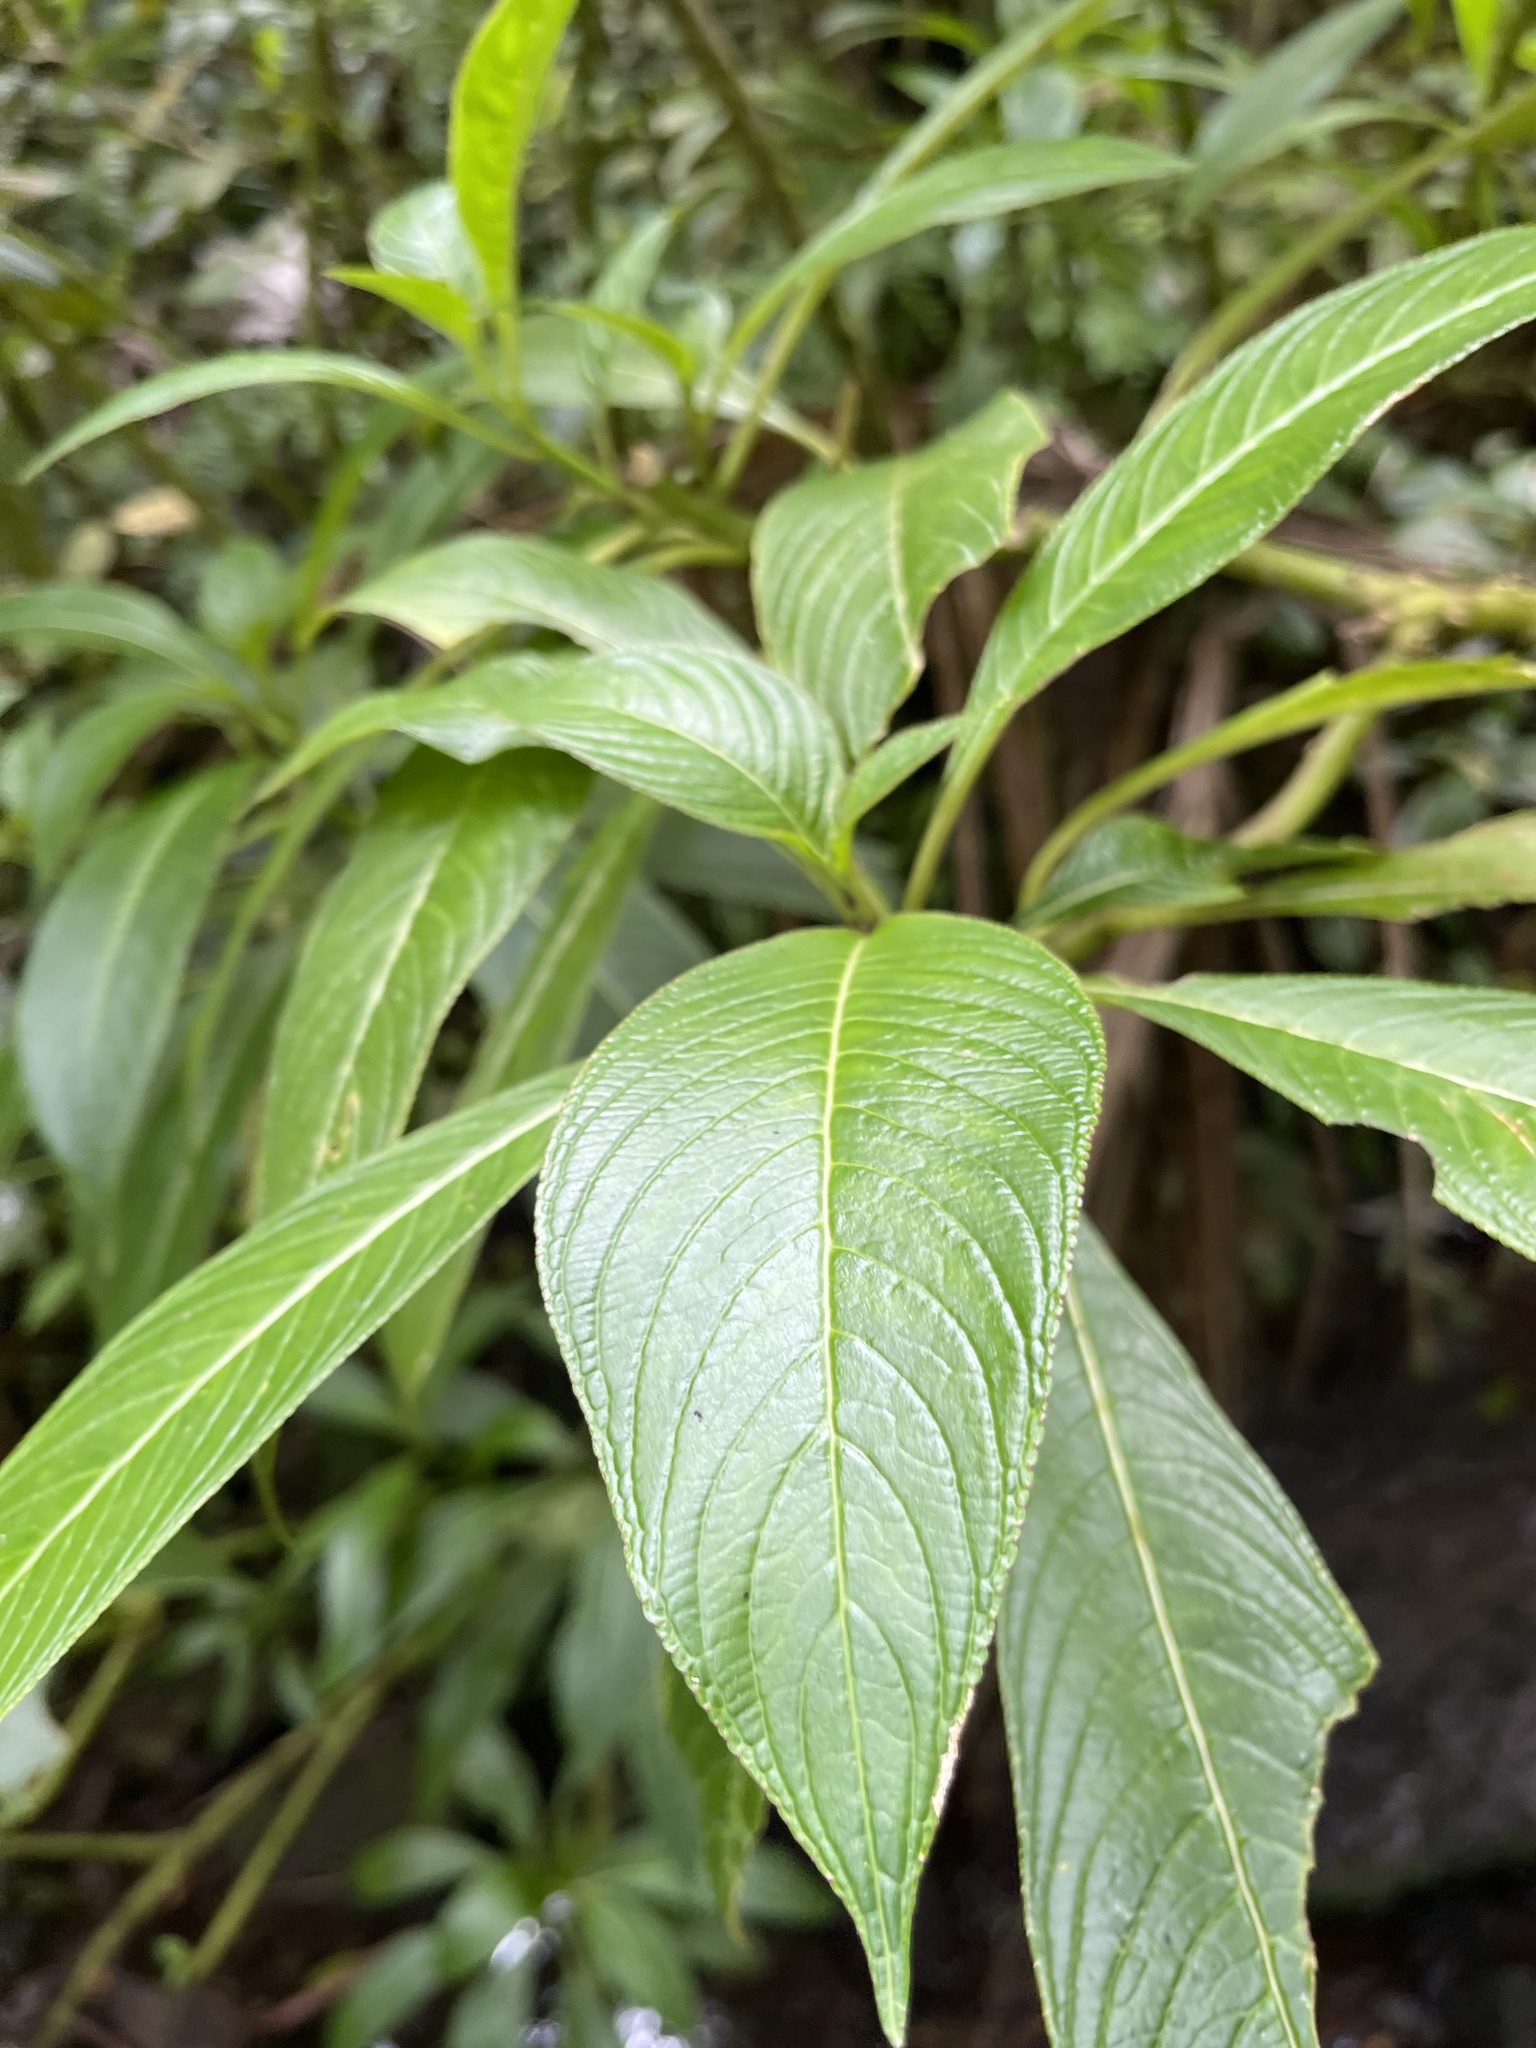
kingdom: Plantae
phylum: Tracheophyta
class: Magnoliopsida
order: Asterales
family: Campanulaceae
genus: Lobelia
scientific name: Lobelia portoricensis
